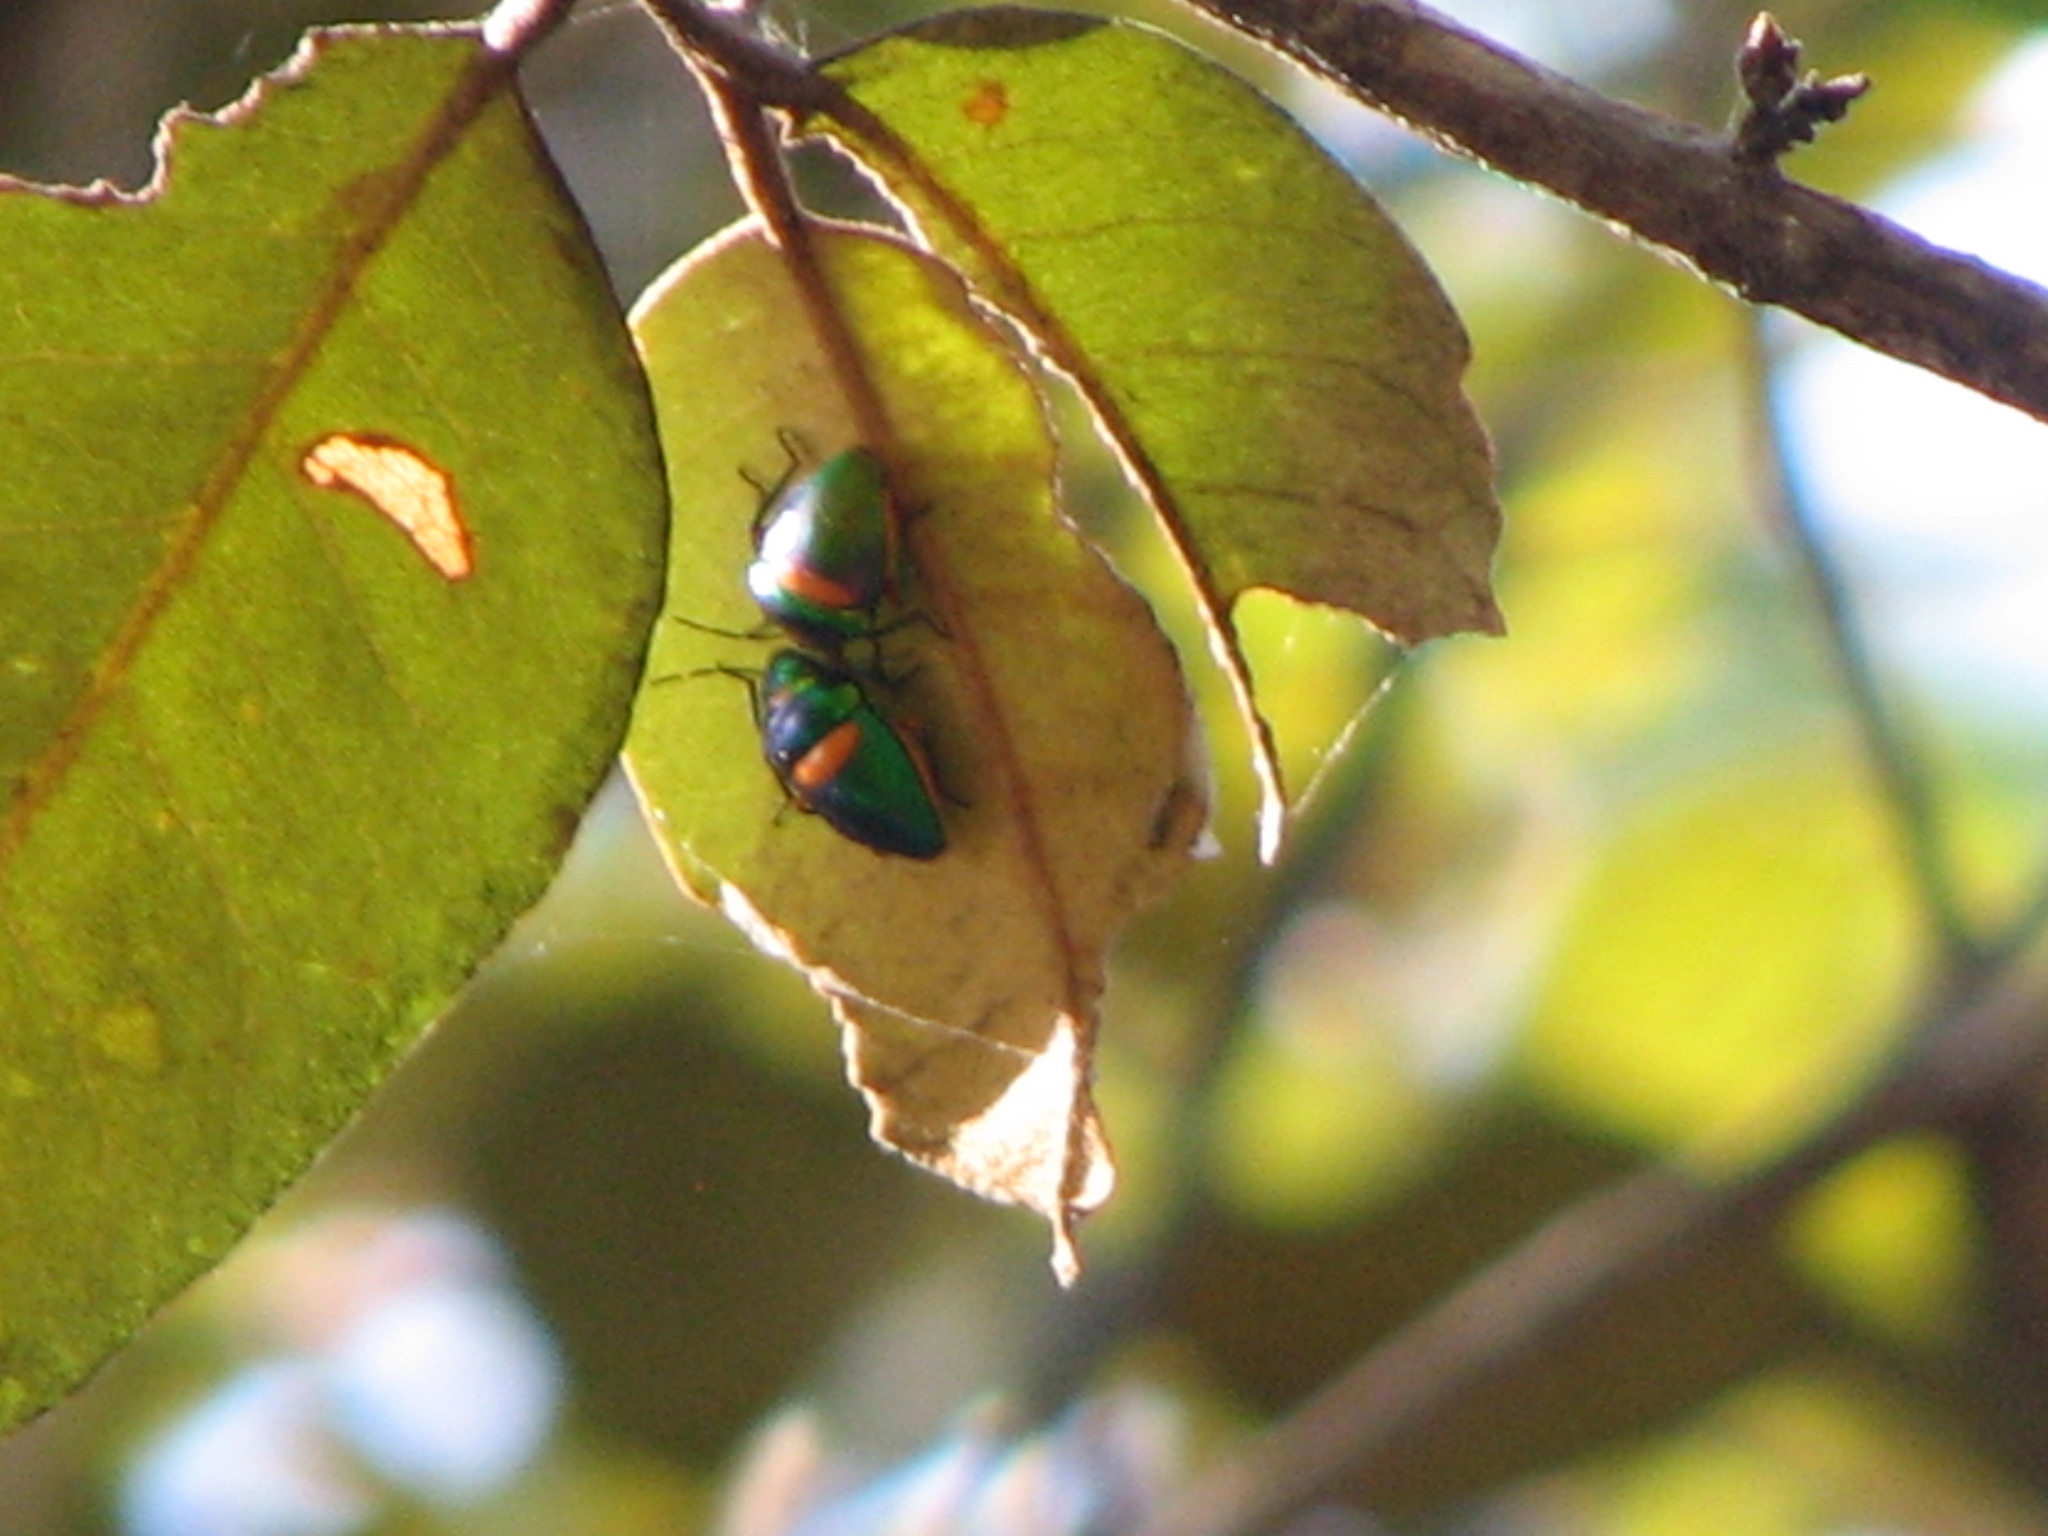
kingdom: Animalia
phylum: Arthropoda
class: Insecta
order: Hemiptera
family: Scutelleridae
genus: Lampromicra
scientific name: Lampromicra senator
